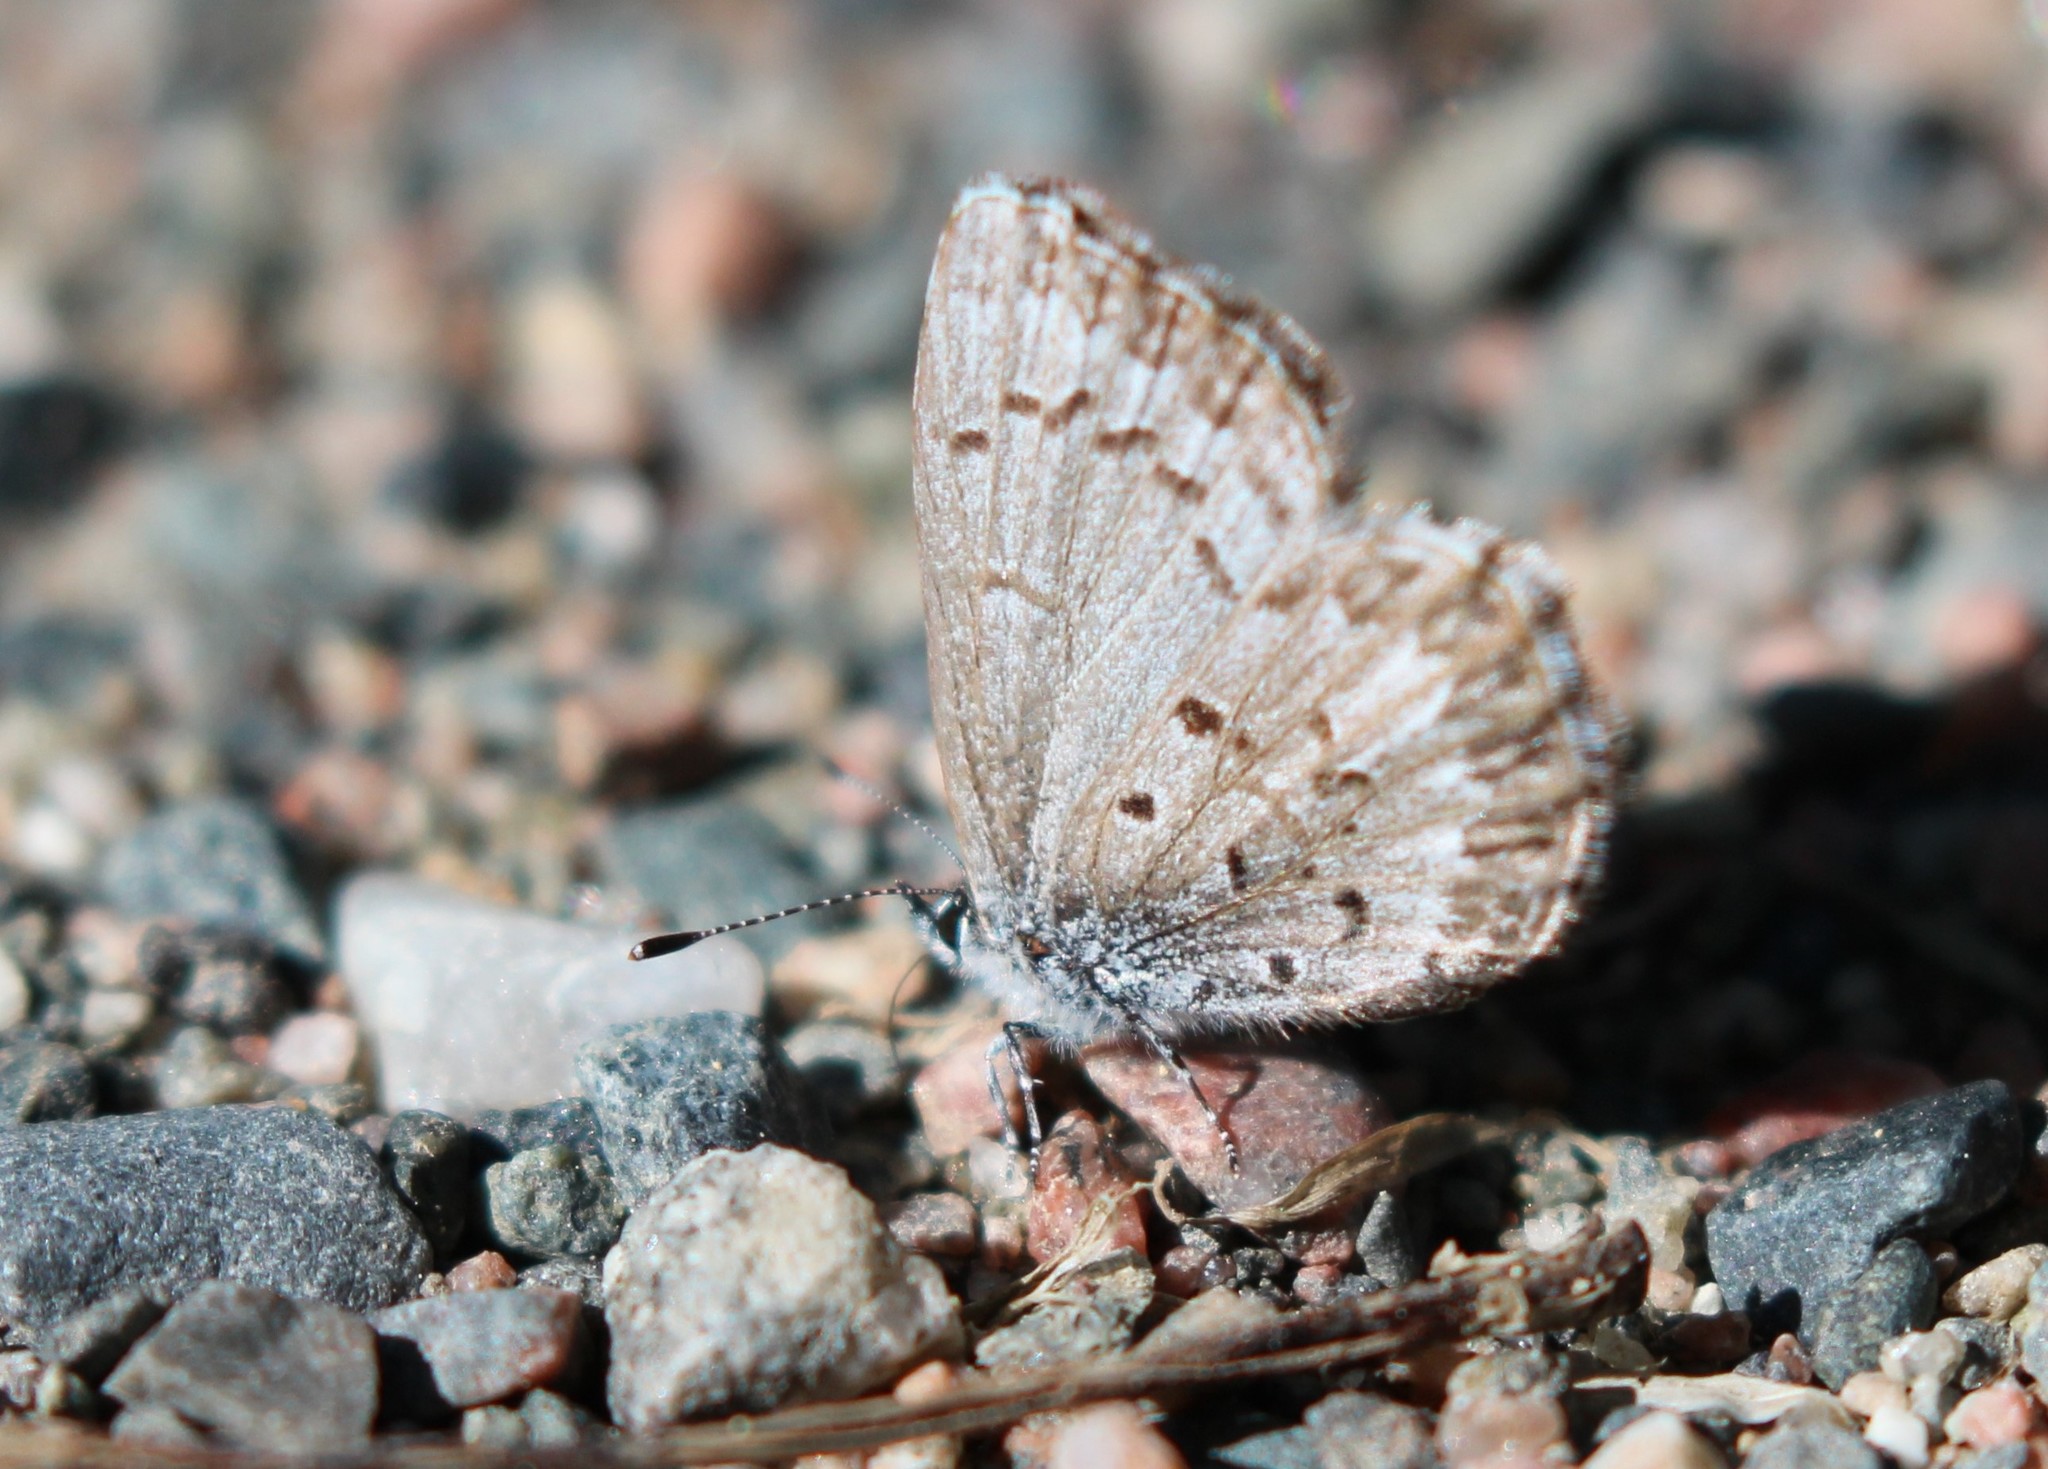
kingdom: Animalia
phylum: Arthropoda
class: Insecta
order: Lepidoptera
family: Lycaenidae
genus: Celastrina
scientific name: Celastrina lucia
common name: Lucia azure
